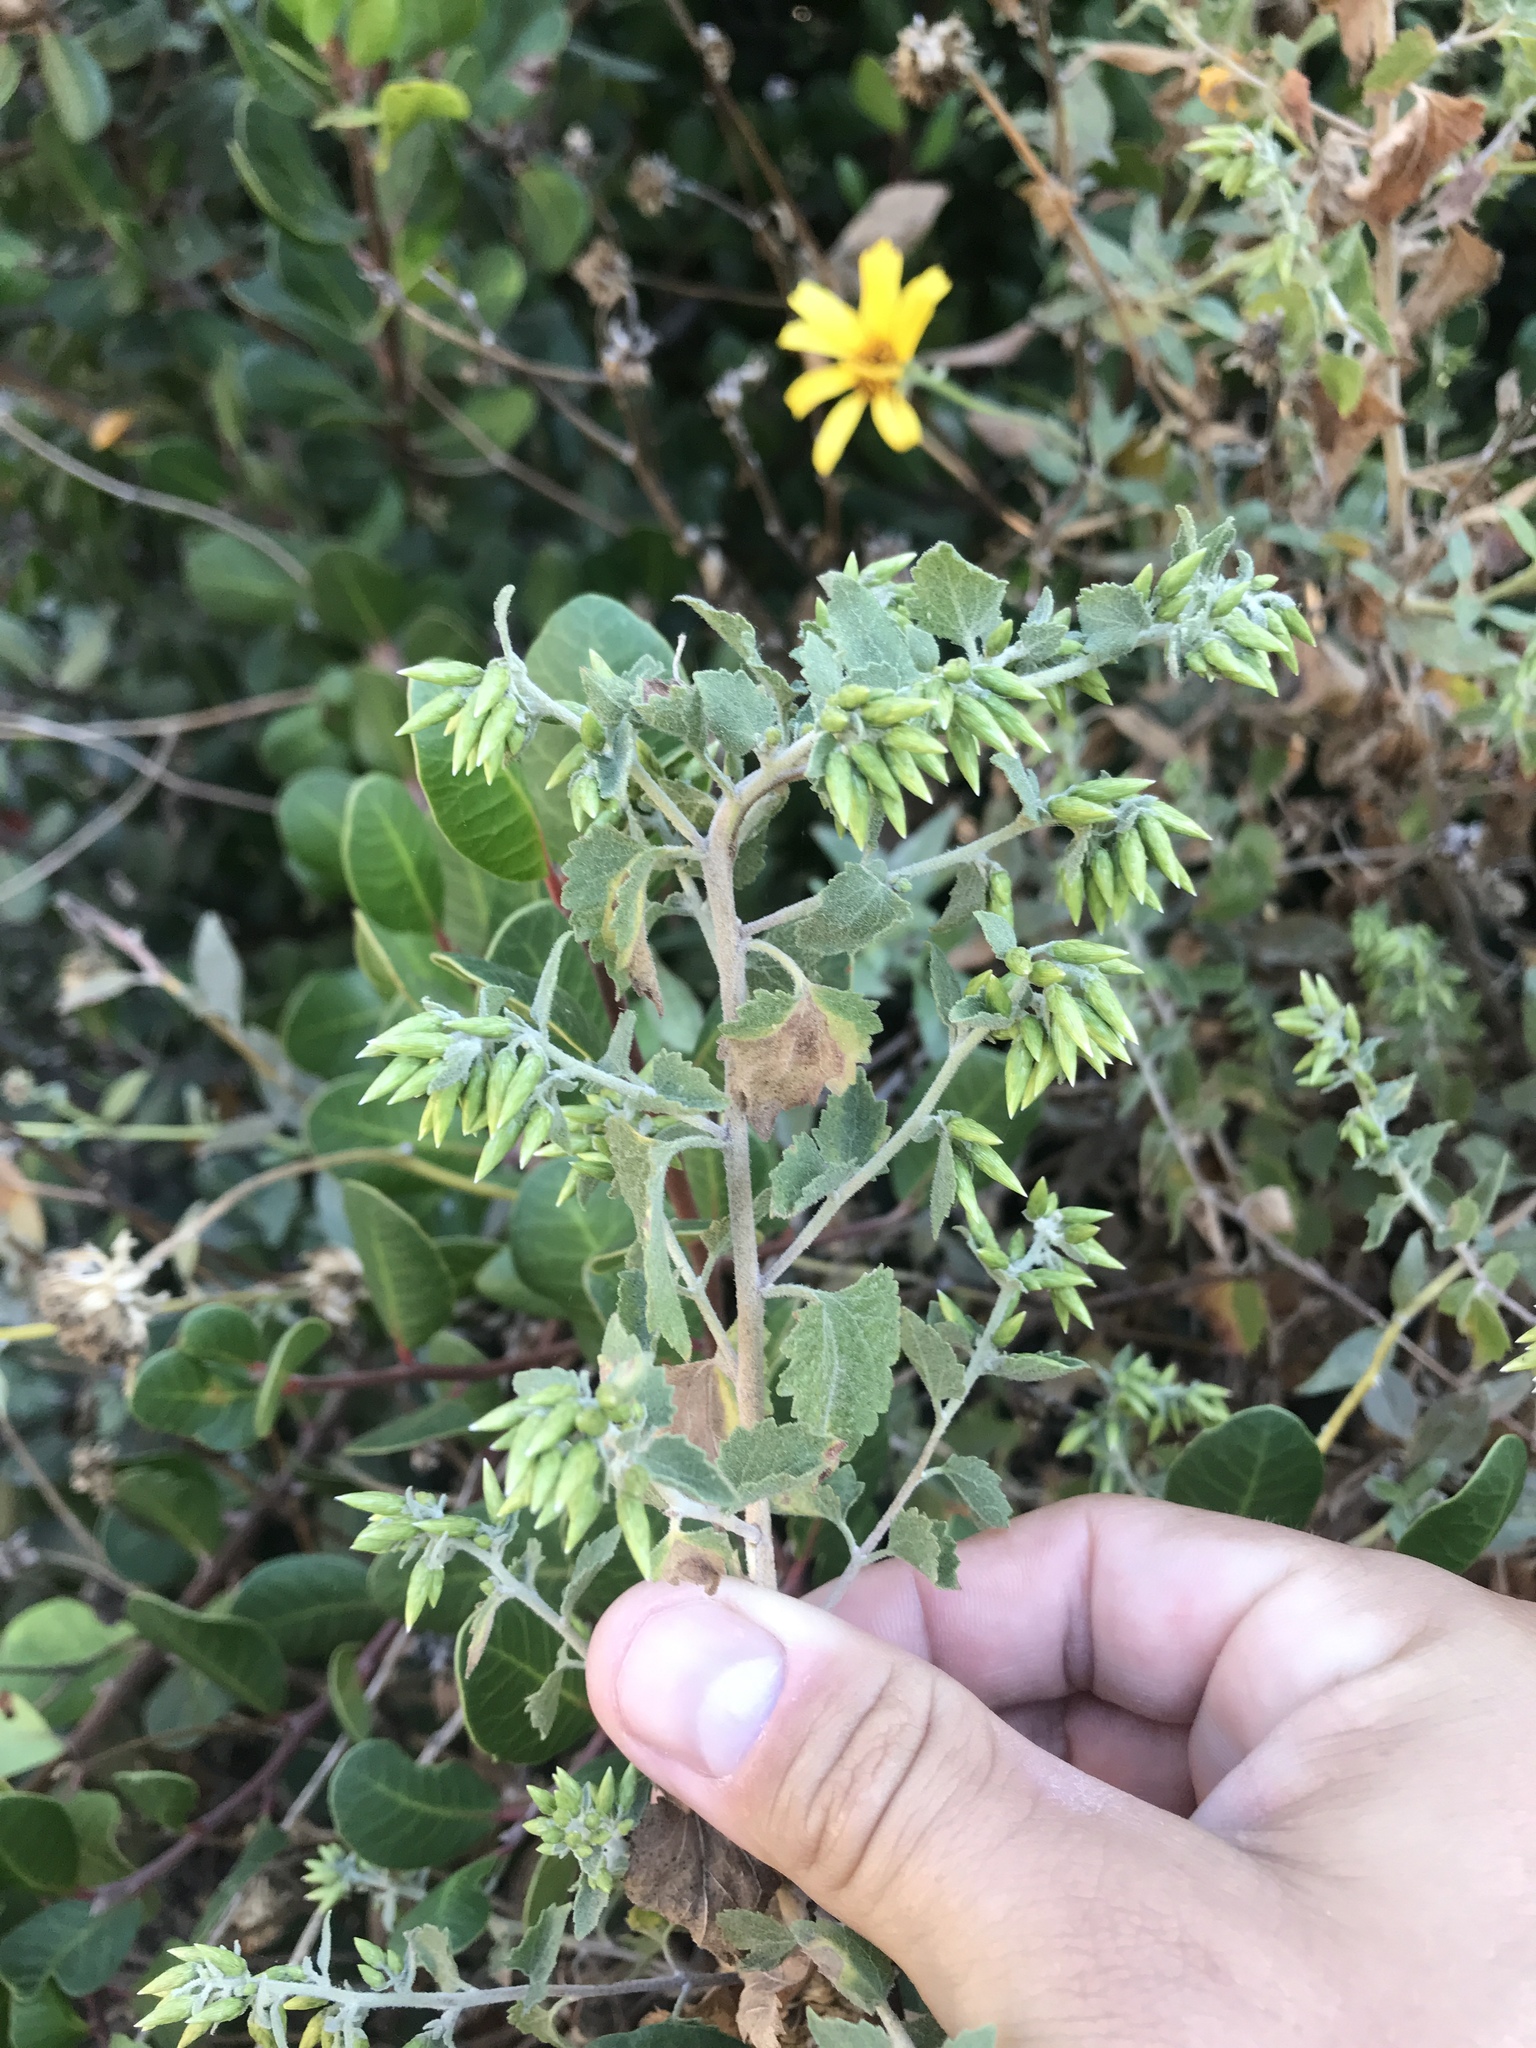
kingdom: Plantae
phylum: Tracheophyta
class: Magnoliopsida
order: Asterales
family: Asteraceae
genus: Brickellia
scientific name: Brickellia californica
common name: California brickellbush
